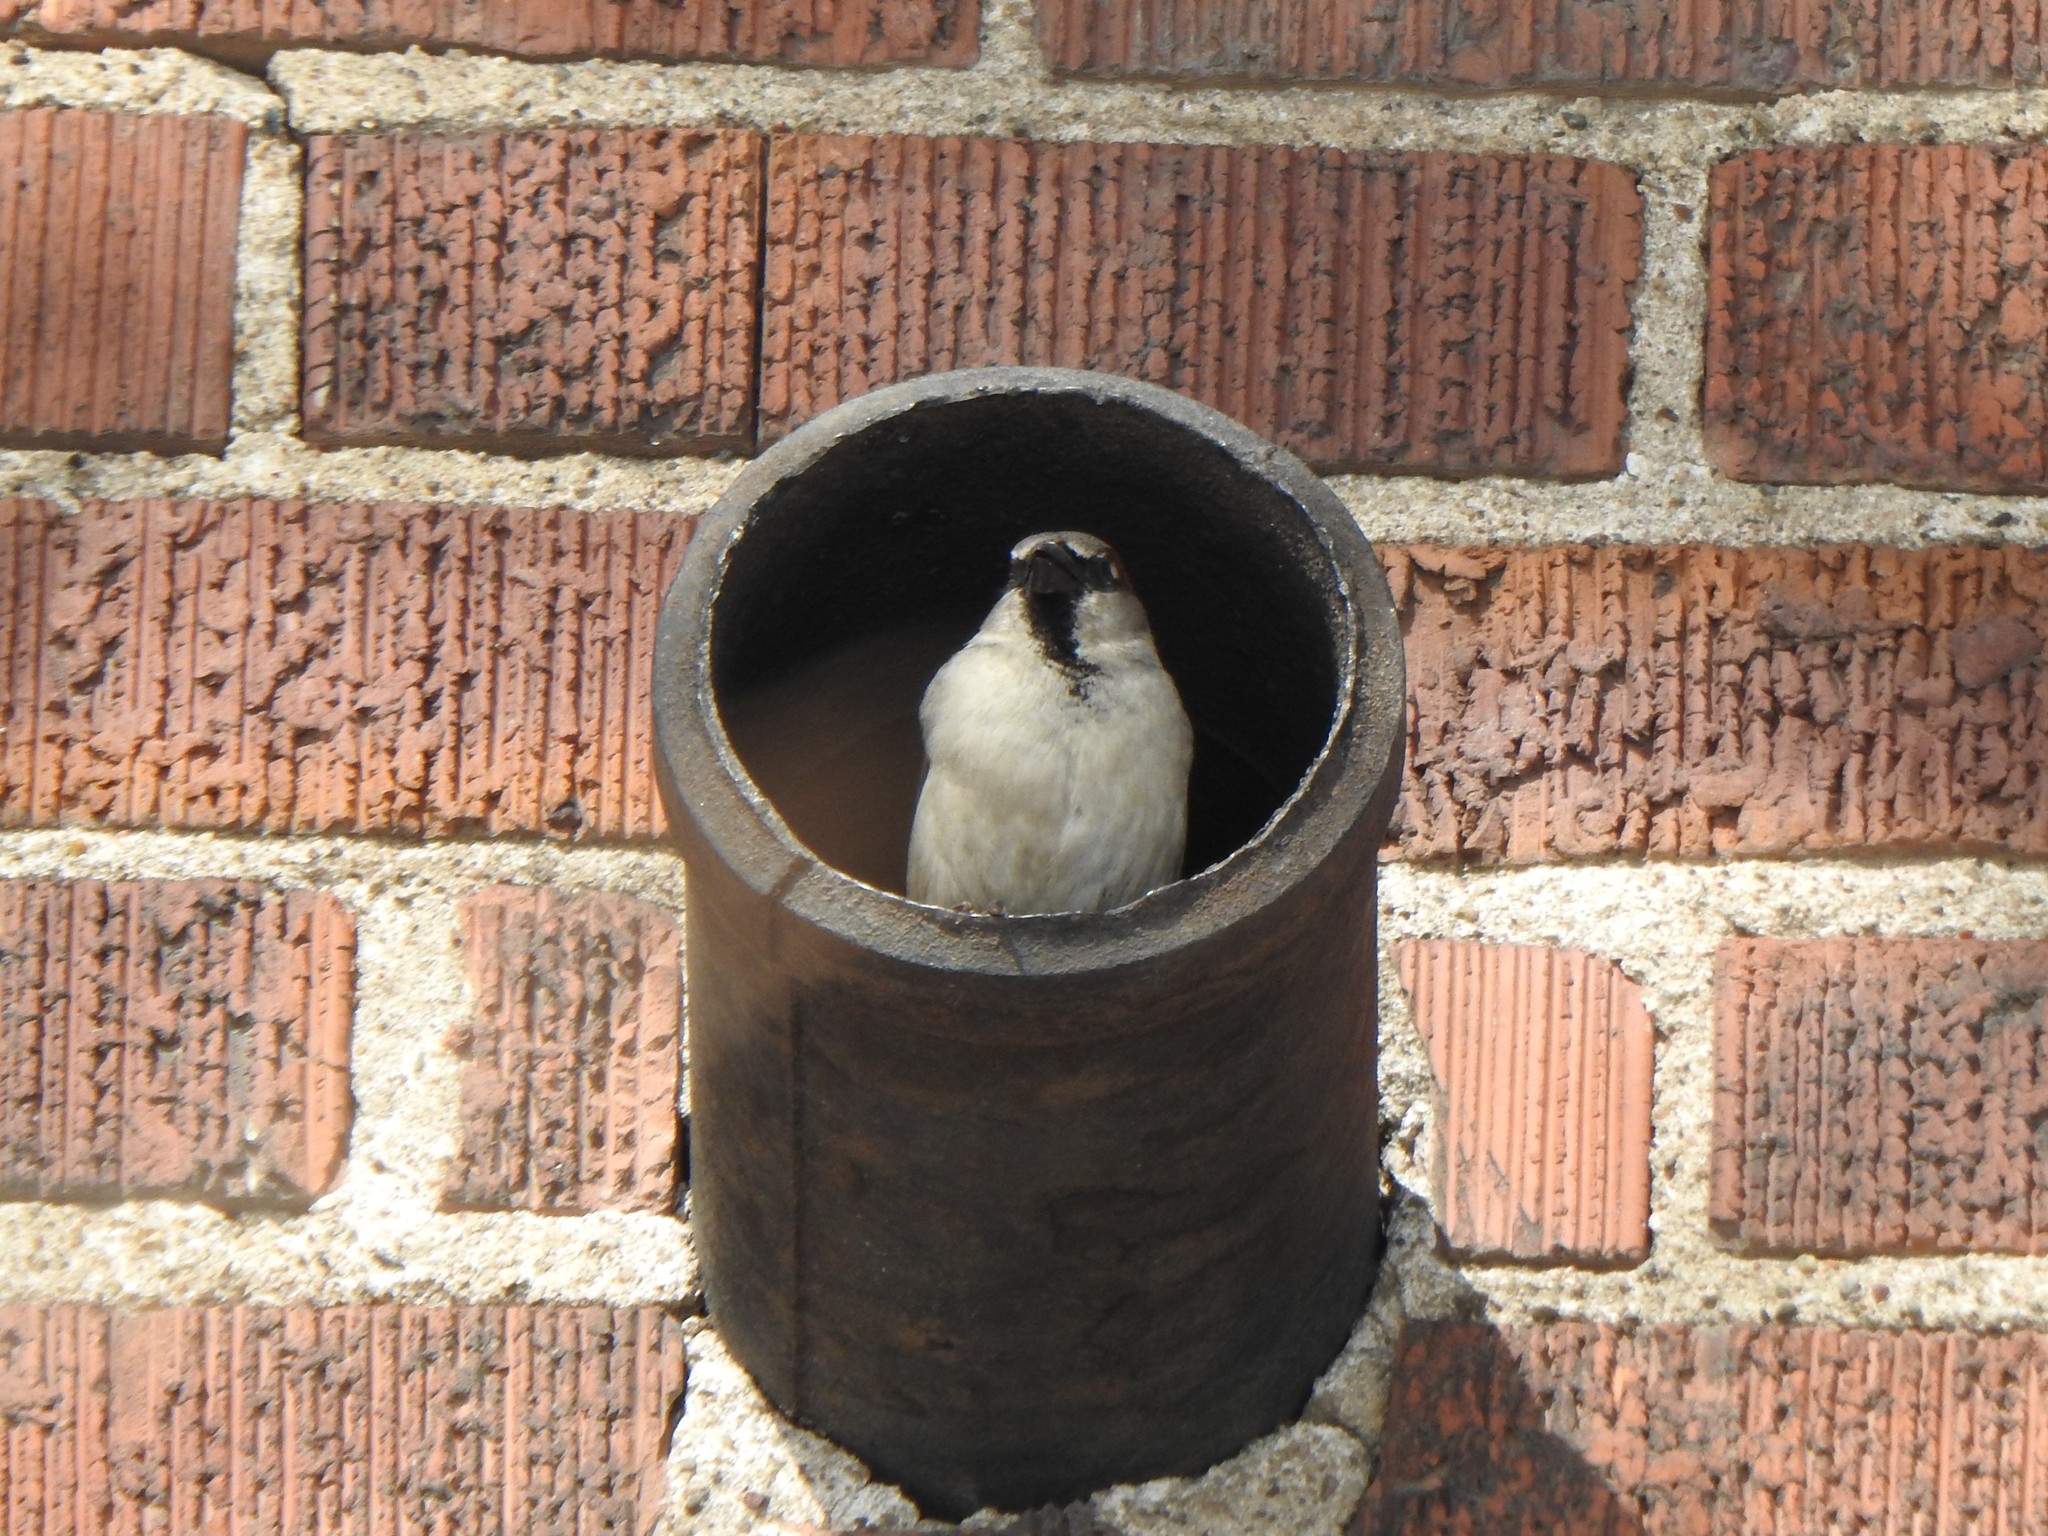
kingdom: Animalia
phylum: Chordata
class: Aves
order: Passeriformes
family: Passeridae
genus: Passer
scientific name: Passer domesticus
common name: House sparrow
